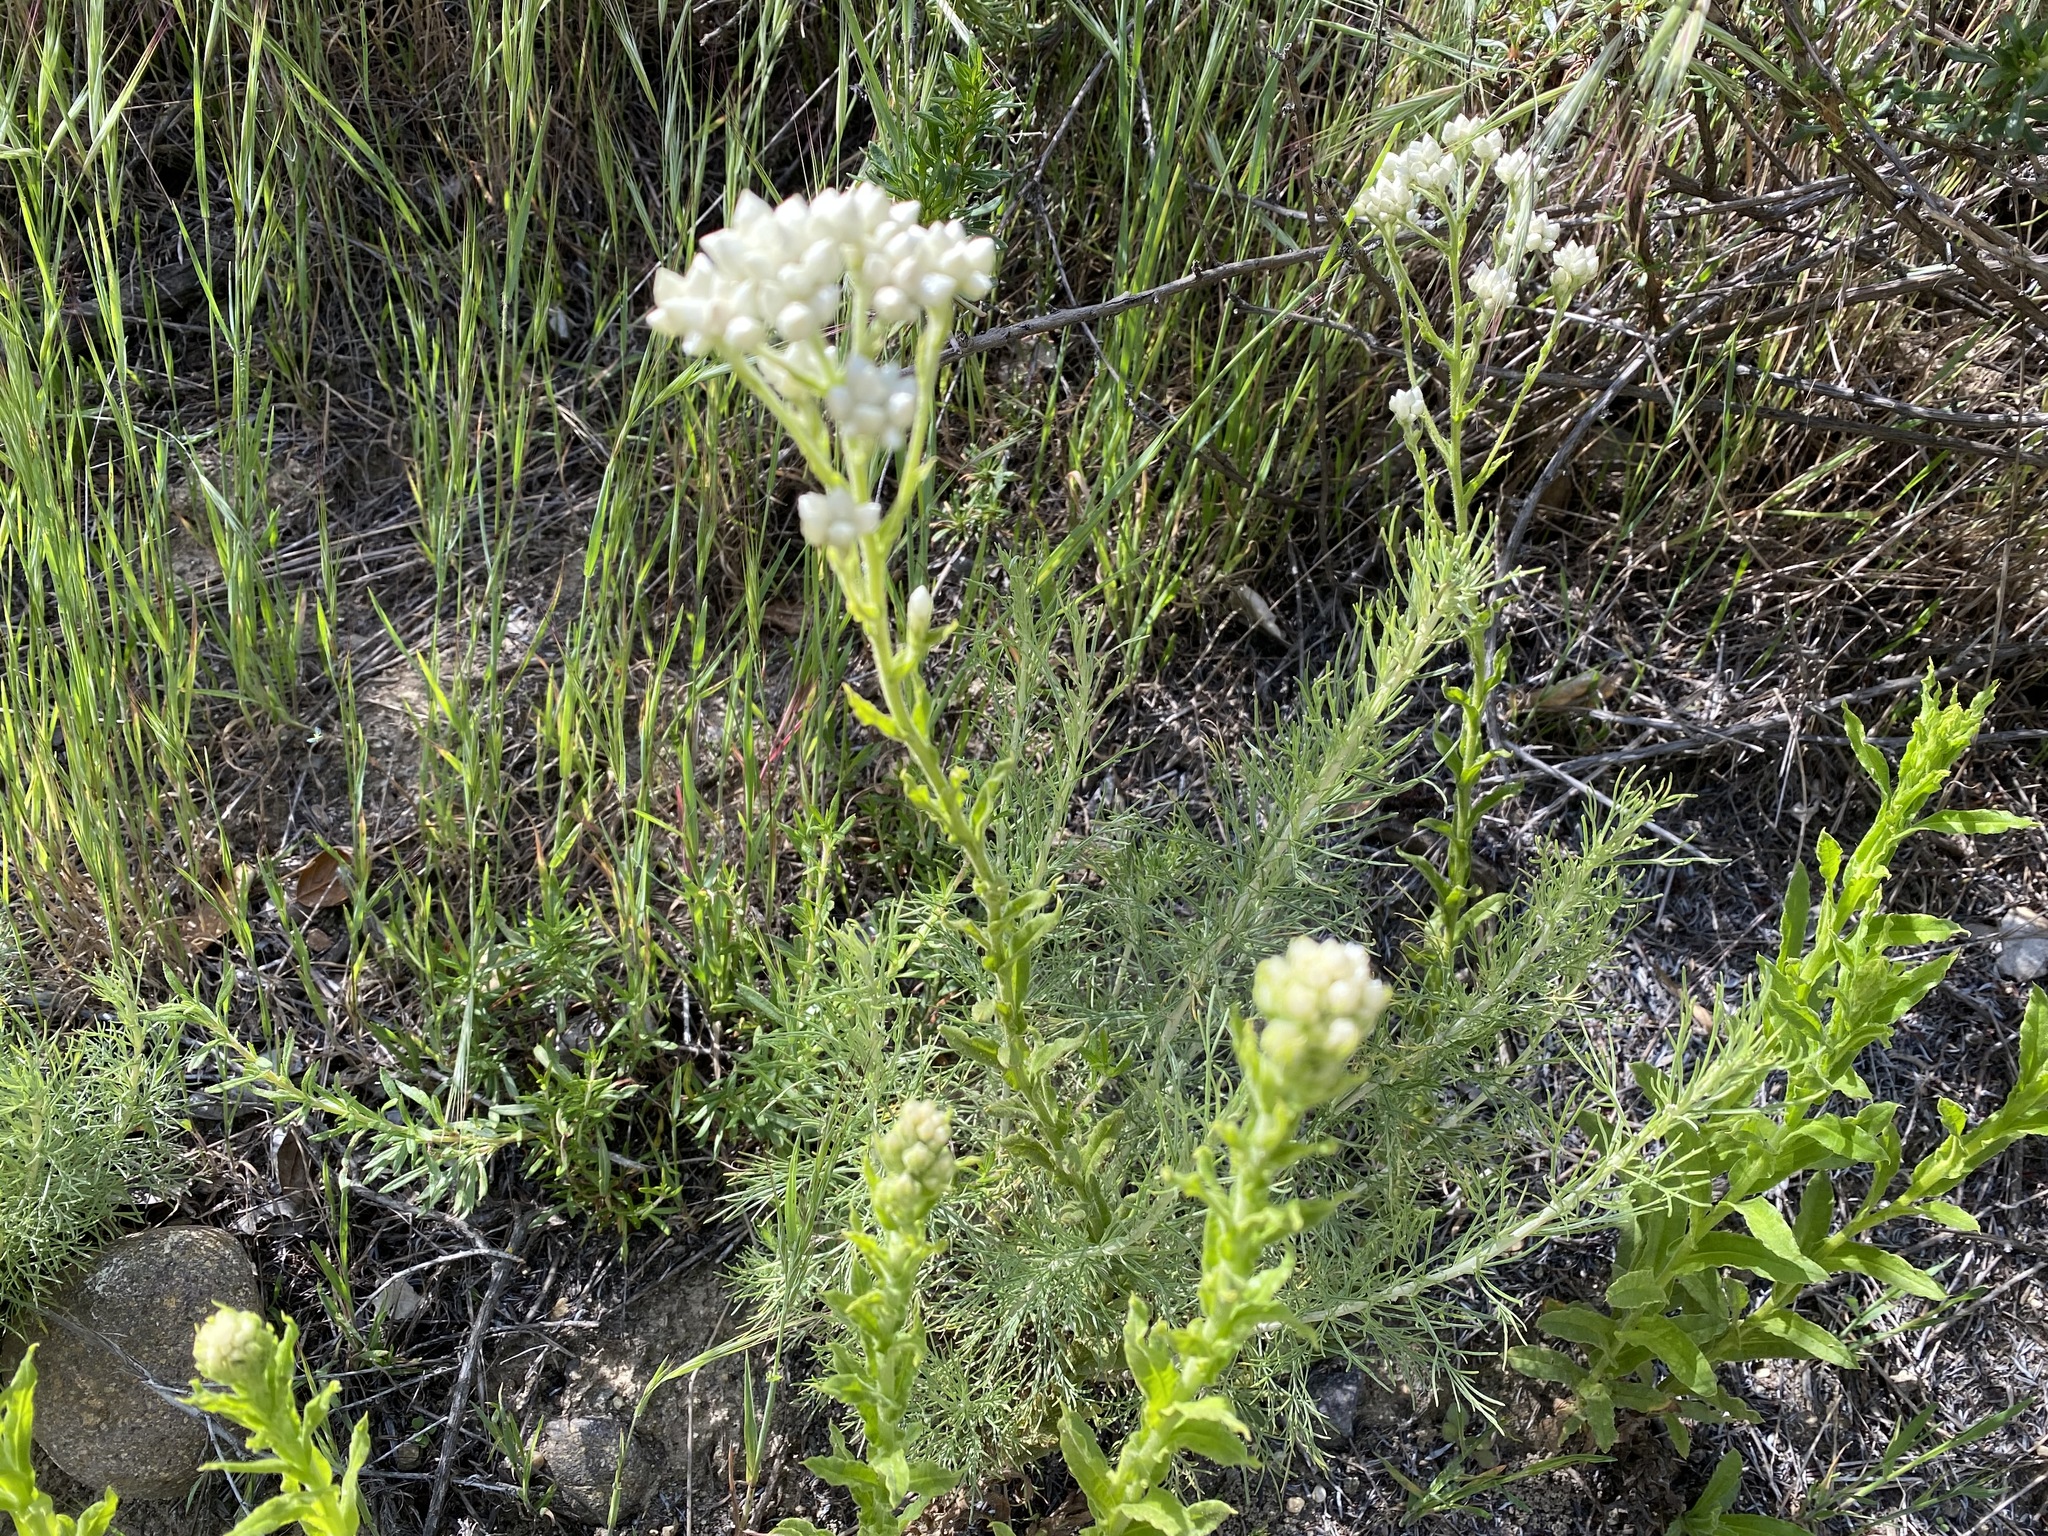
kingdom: Plantae
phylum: Tracheophyta
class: Magnoliopsida
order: Asterales
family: Asteraceae
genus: Pseudognaphalium
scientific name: Pseudognaphalium californicum
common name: California rabbit-tobacco
